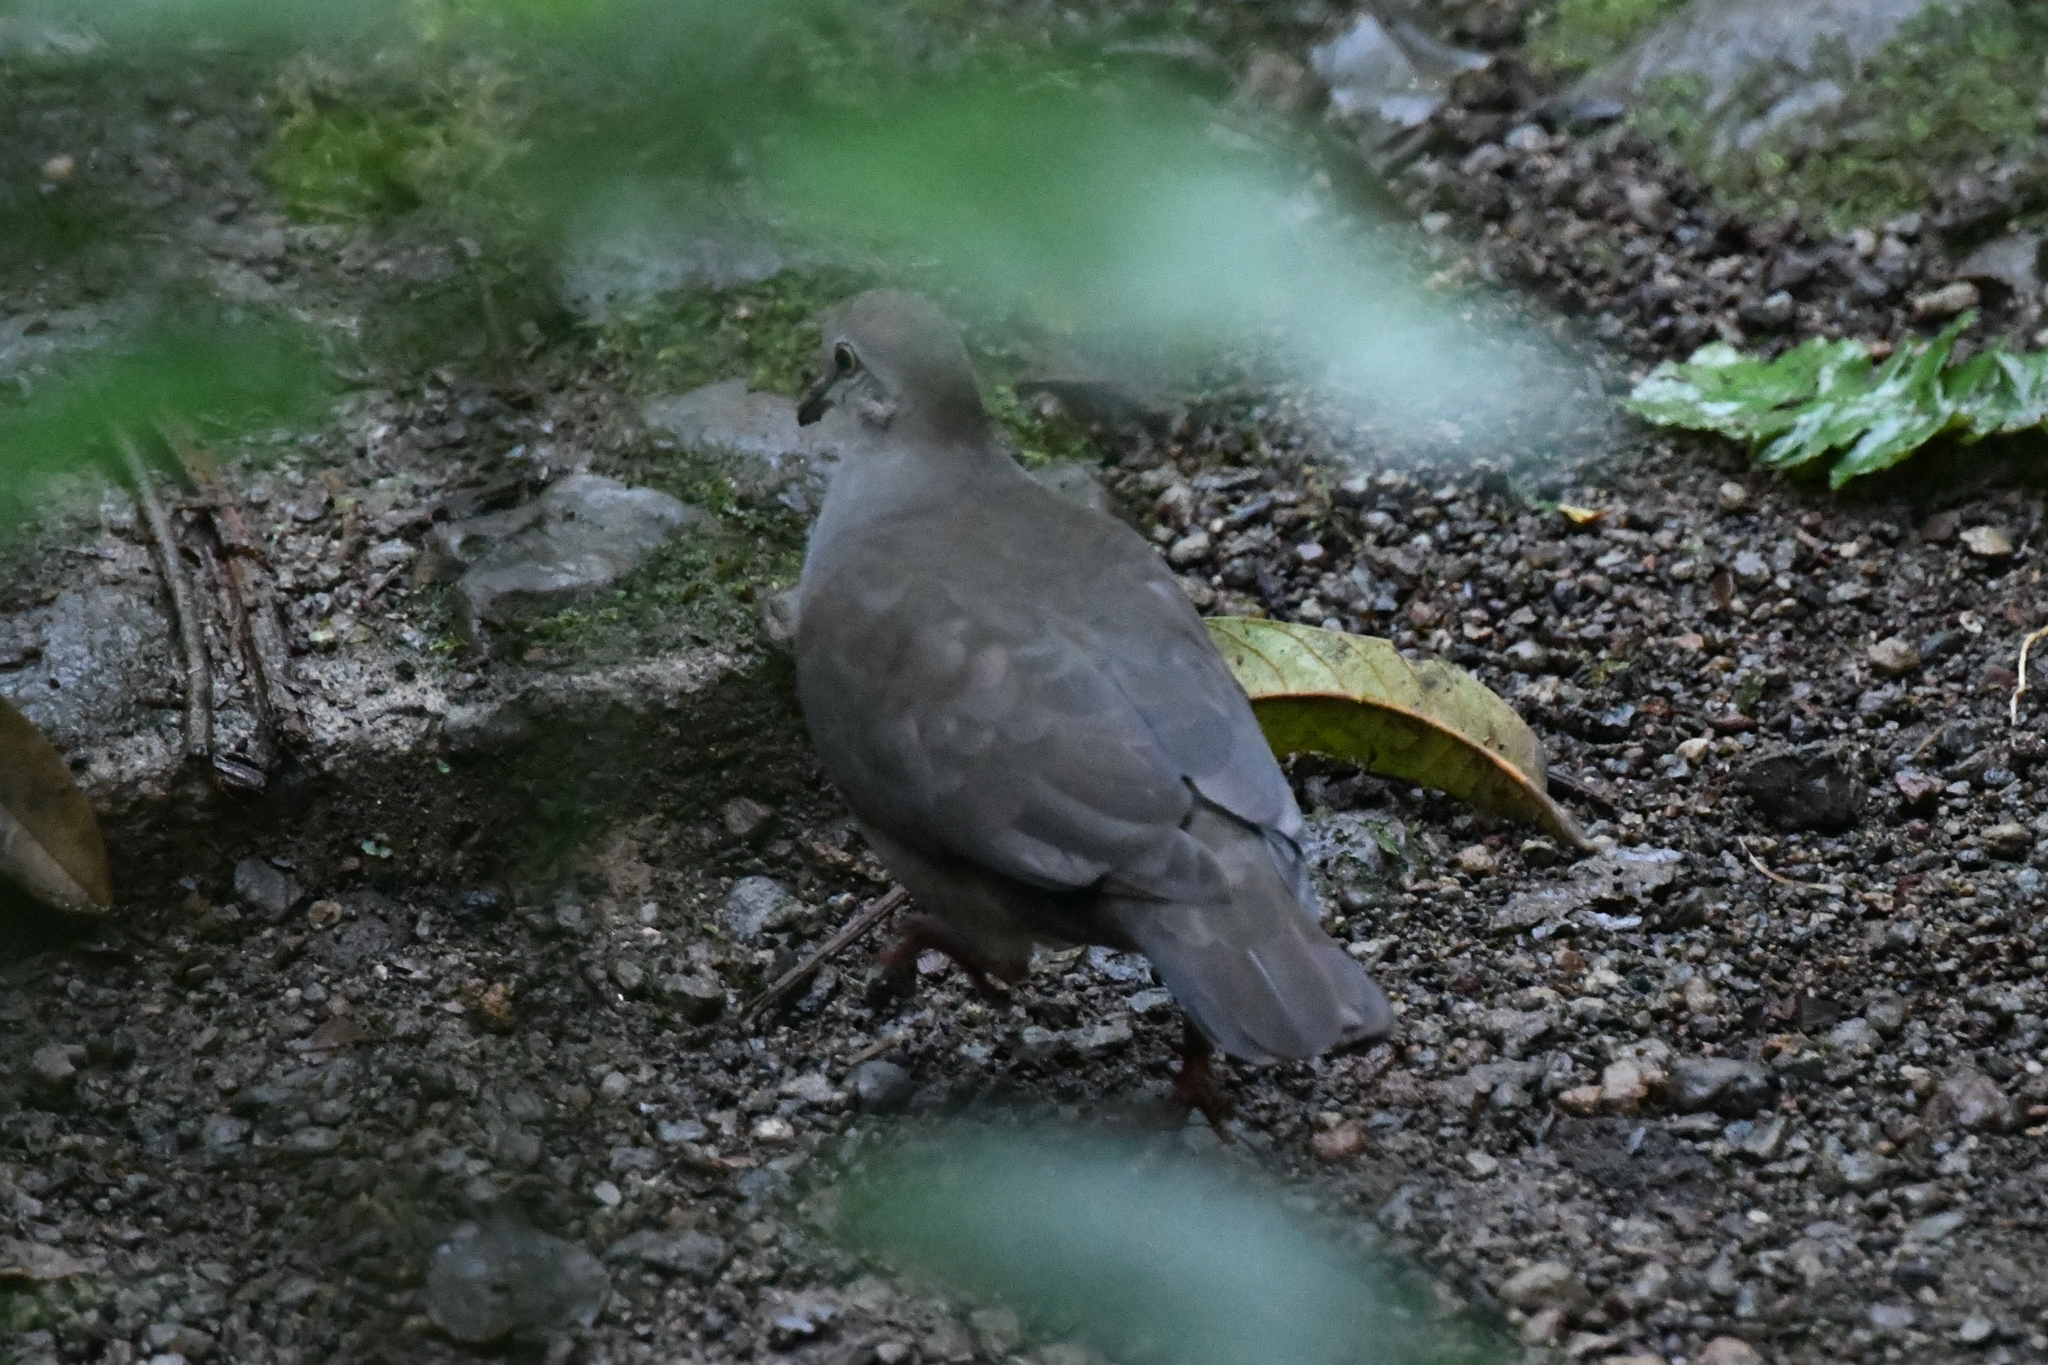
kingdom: Animalia
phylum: Chordata
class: Aves
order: Columbiformes
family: Columbidae
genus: Leptotila
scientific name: Leptotila cassinii
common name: Grey-chested dove
